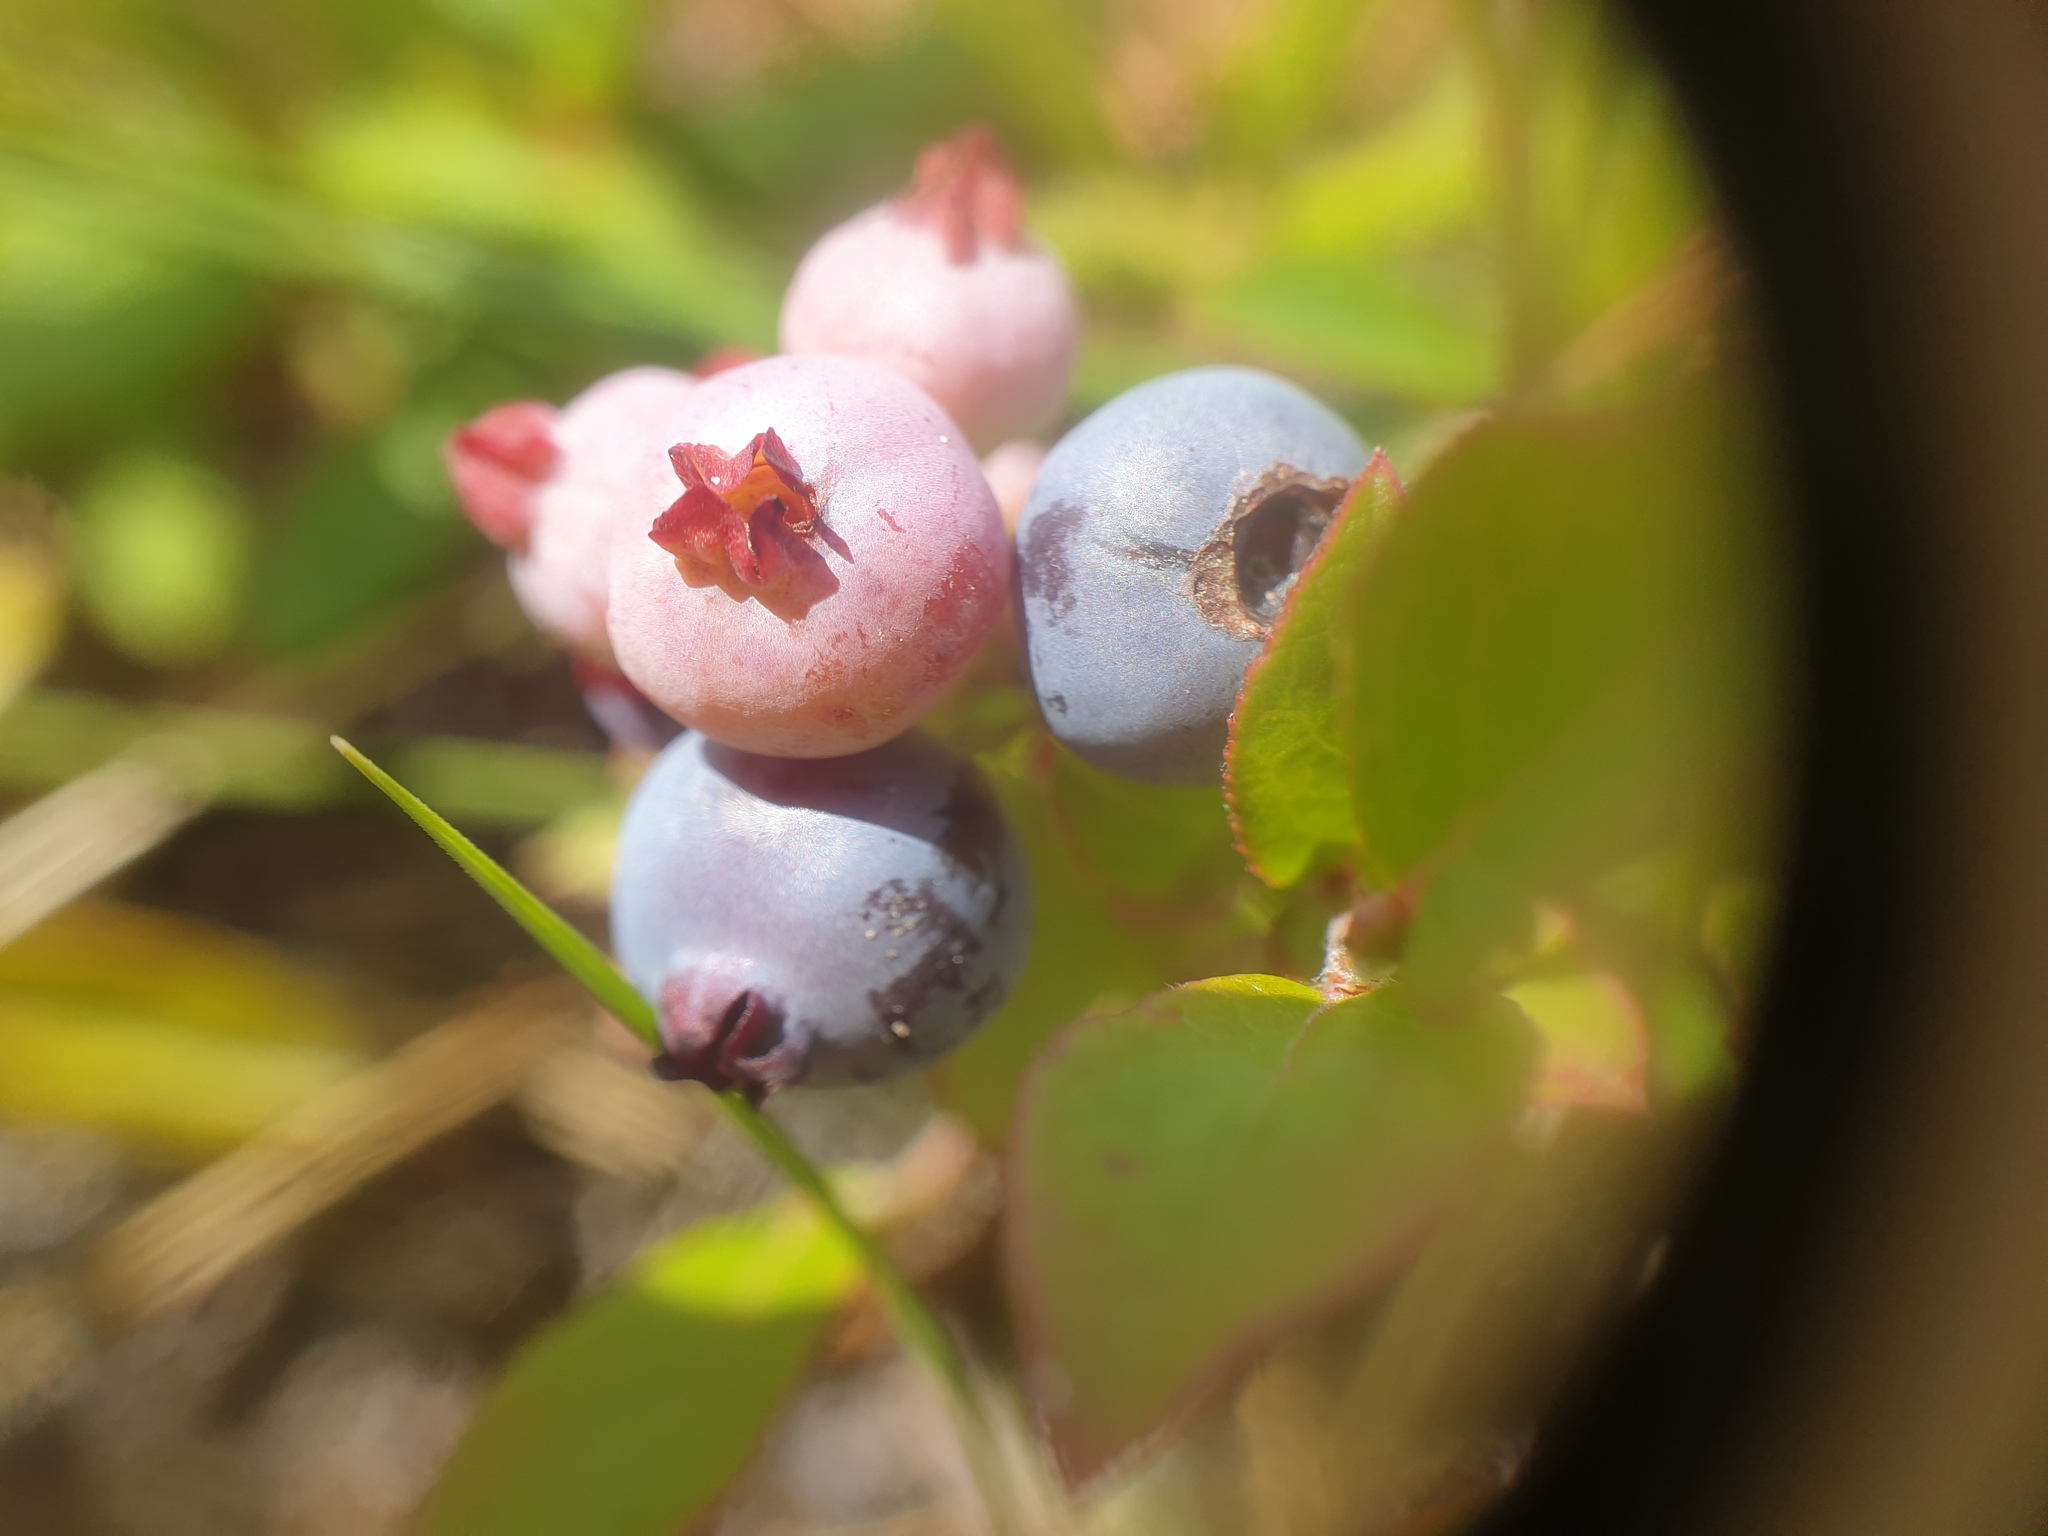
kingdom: Plantae
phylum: Tracheophyta
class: Magnoliopsida
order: Ericales
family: Ericaceae
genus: Vaccinium
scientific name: Vaccinium angustifolium
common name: Early lowbush blueberry
